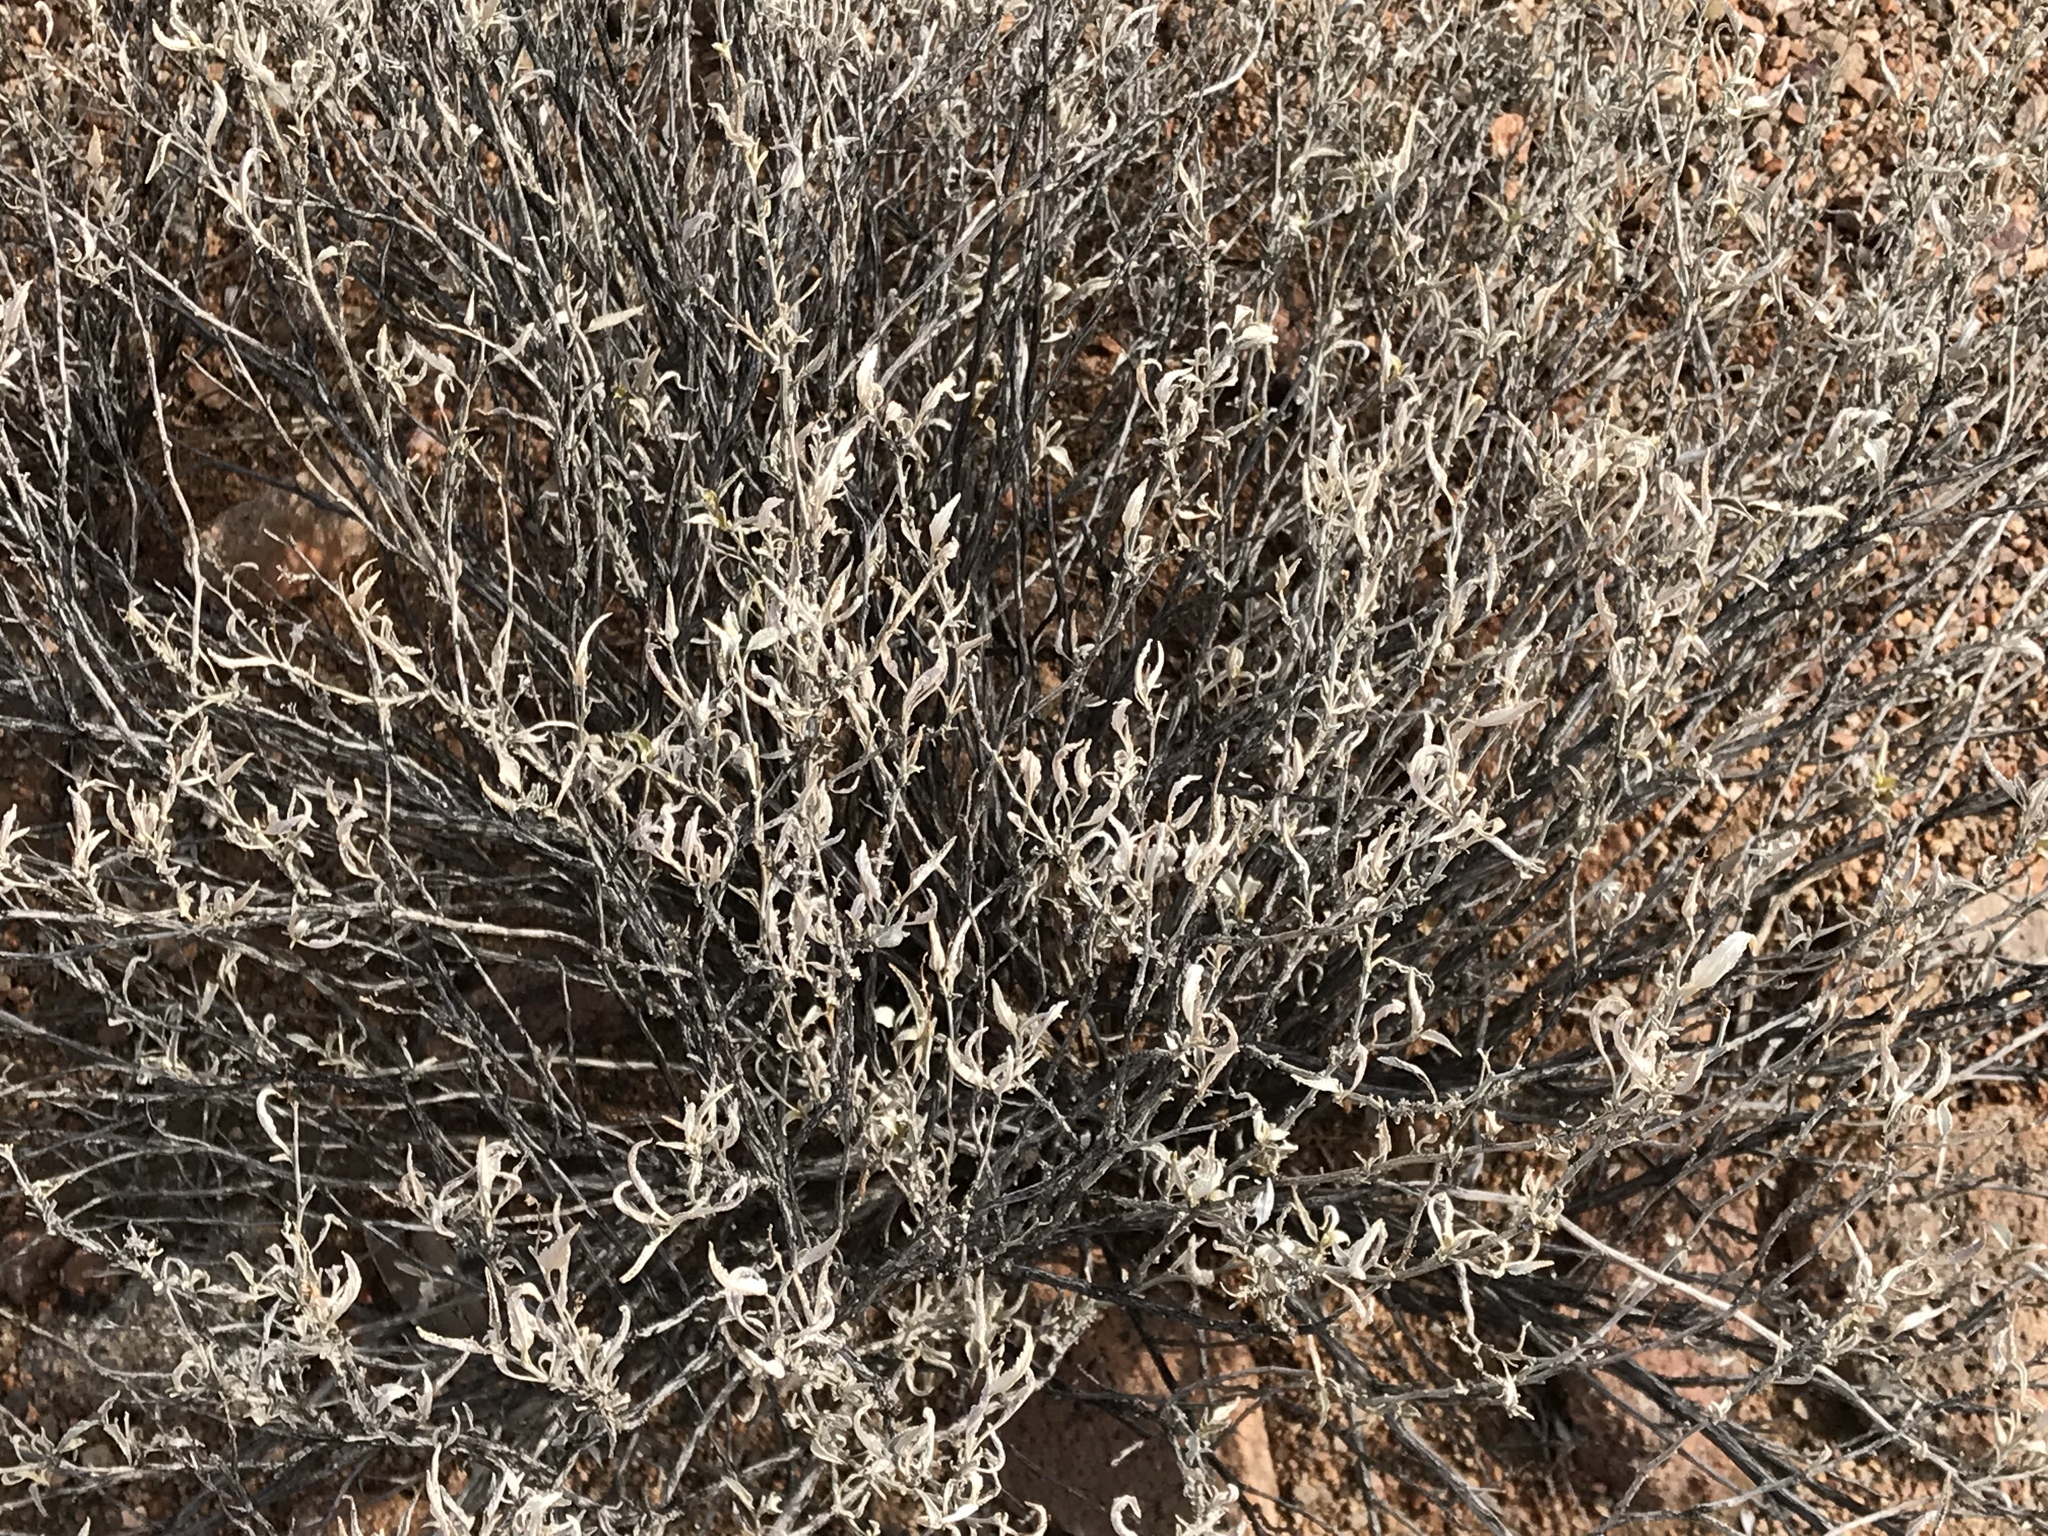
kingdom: Plantae
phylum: Tracheophyta
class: Magnoliopsida
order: Asterales
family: Asteraceae
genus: Ambrosia
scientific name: Ambrosia deltoidea
